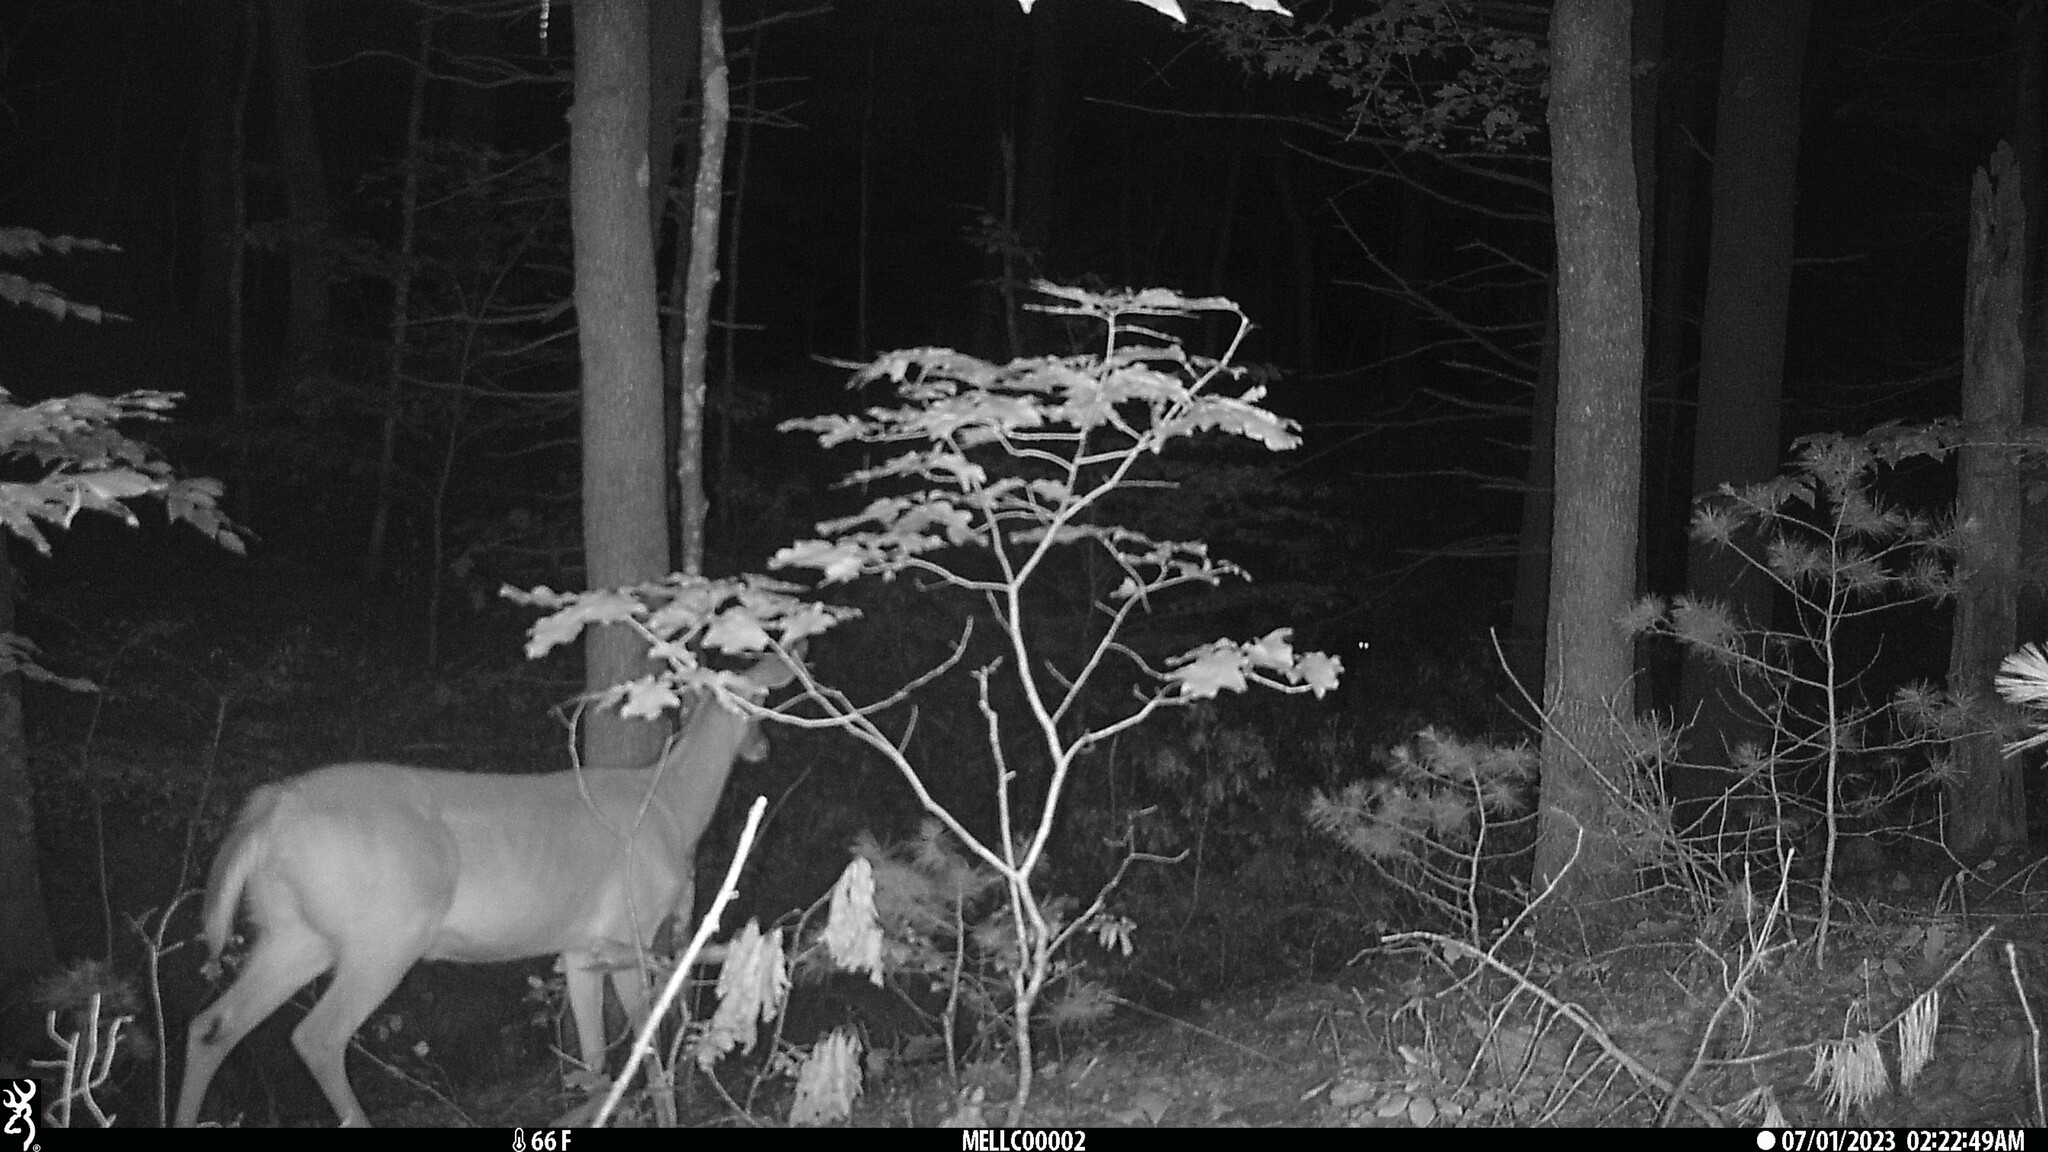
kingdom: Animalia
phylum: Chordata
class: Mammalia
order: Artiodactyla
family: Cervidae
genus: Odocoileus
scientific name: Odocoileus virginianus
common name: White-tailed deer
